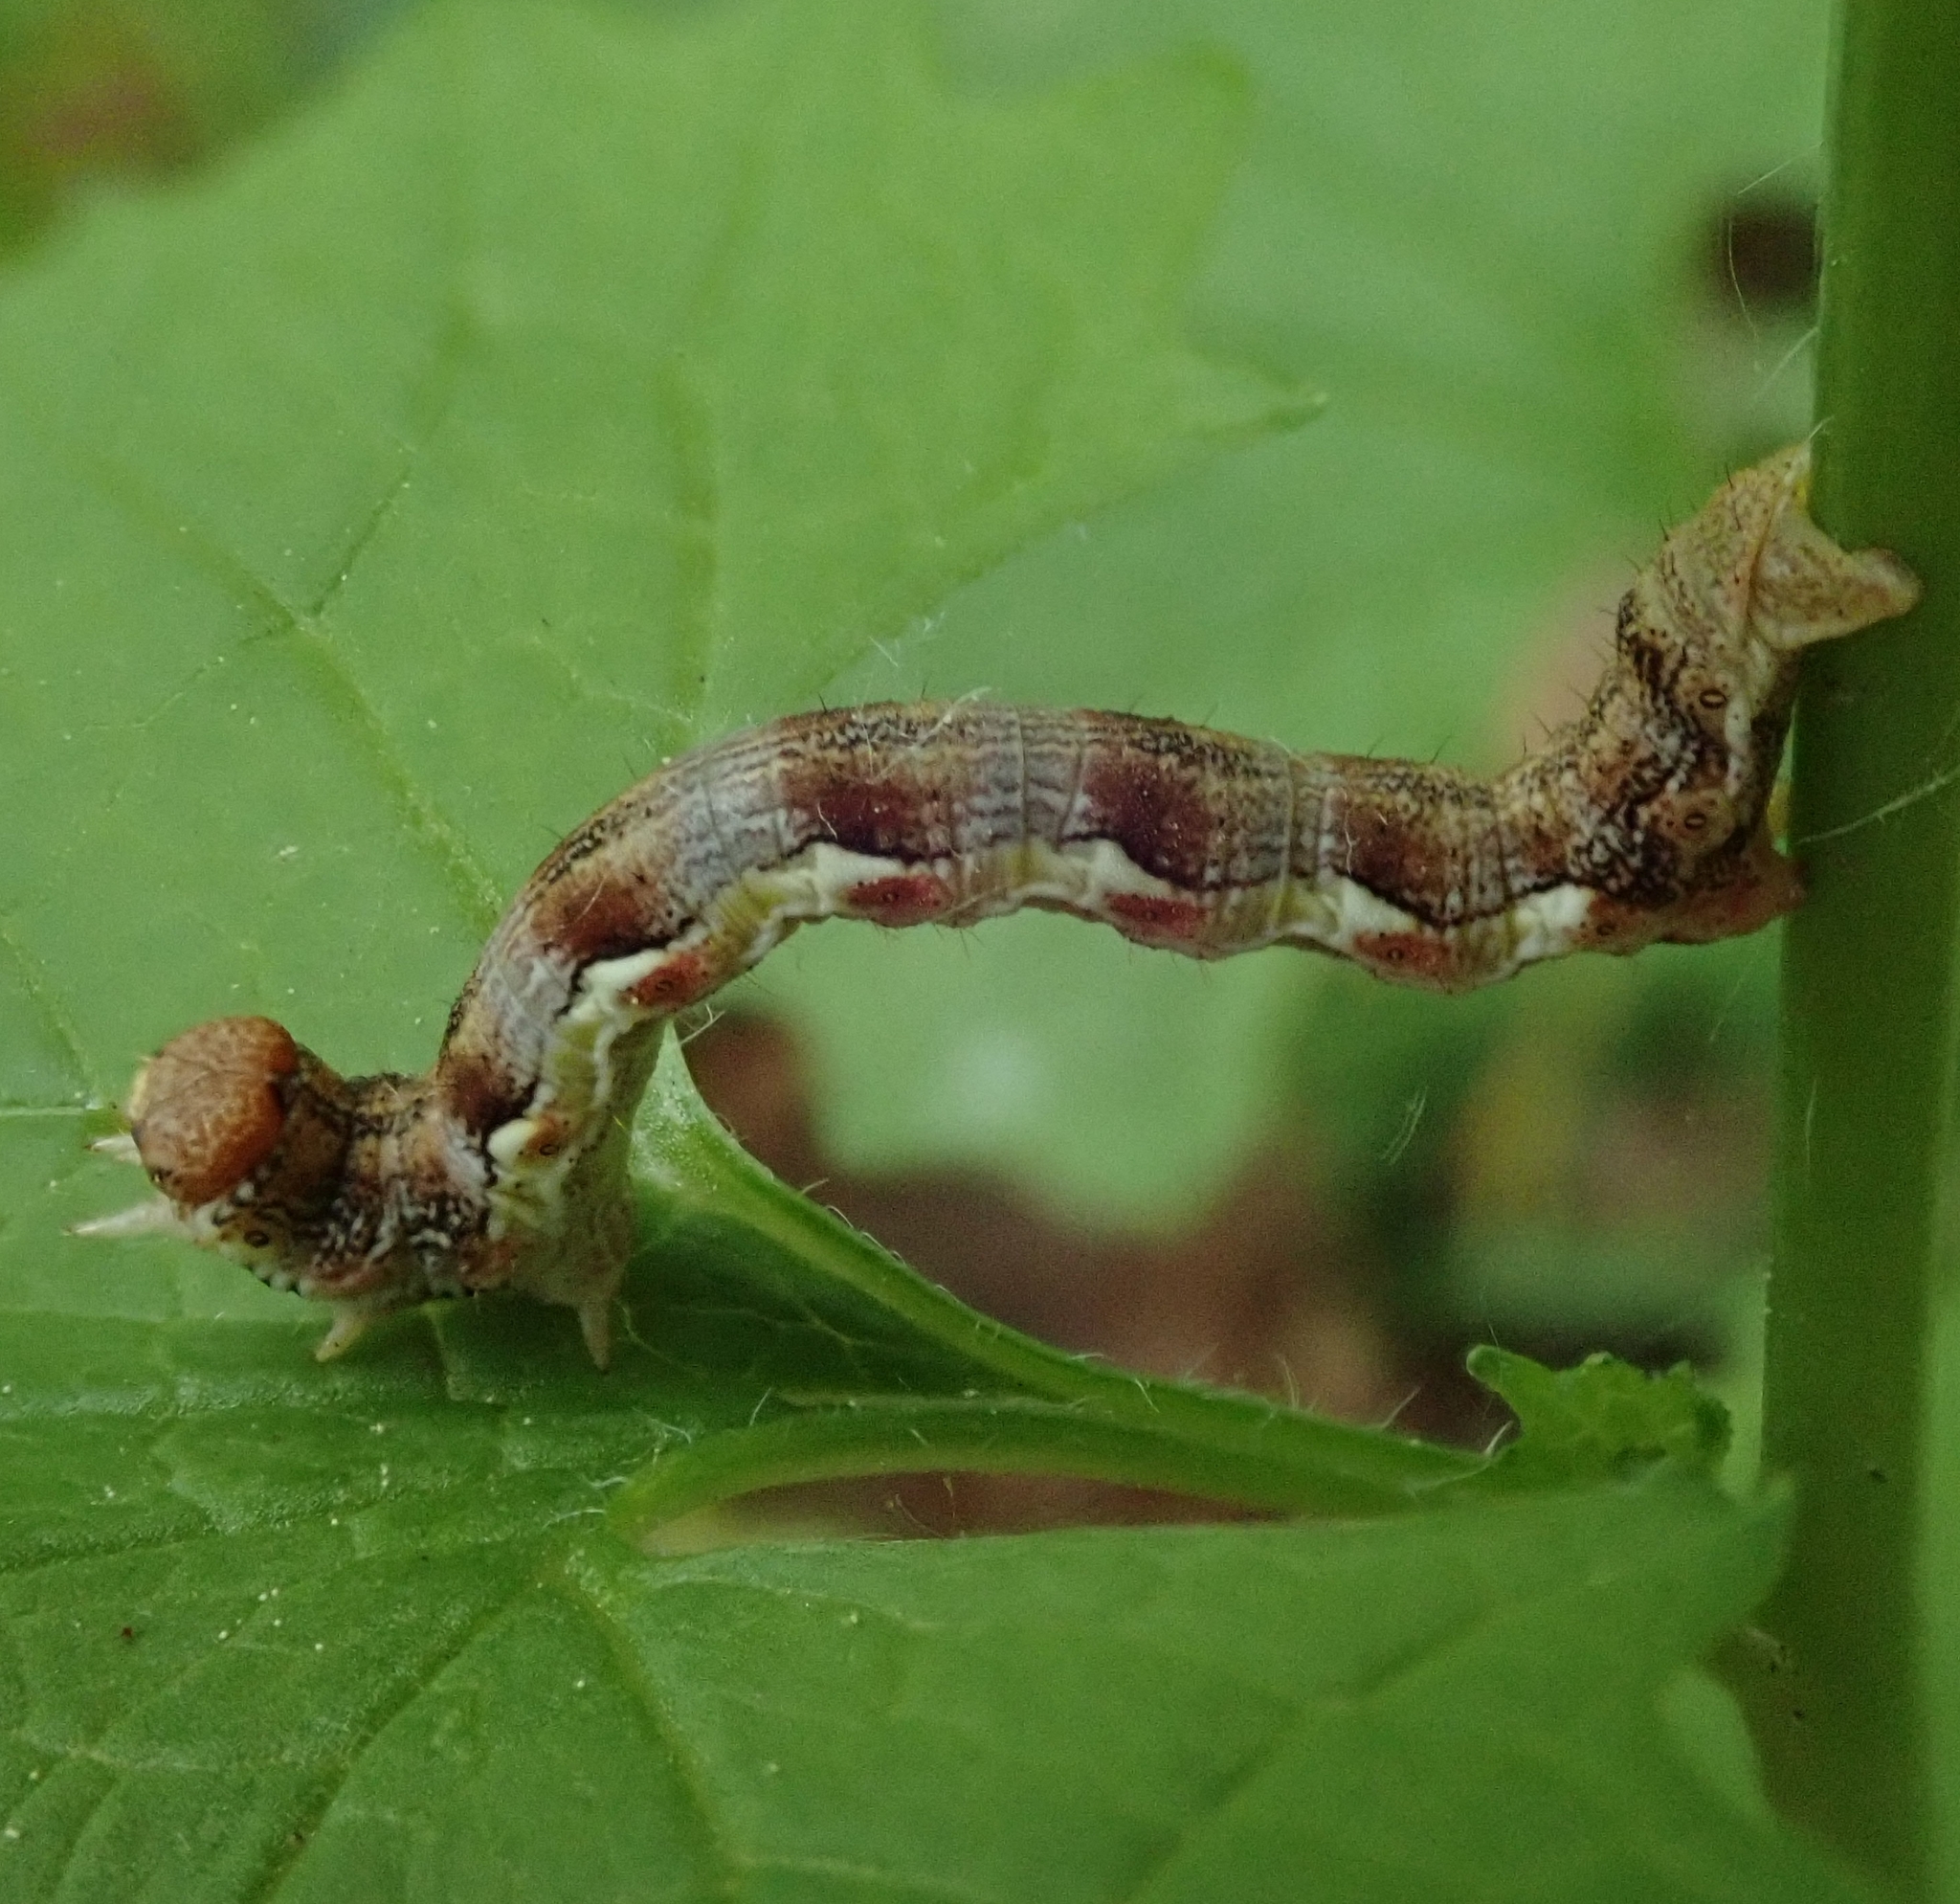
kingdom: Animalia
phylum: Arthropoda
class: Insecta
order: Lepidoptera
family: Geometridae
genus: Erannis
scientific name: Erannis defoliaria
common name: Mottled umber
